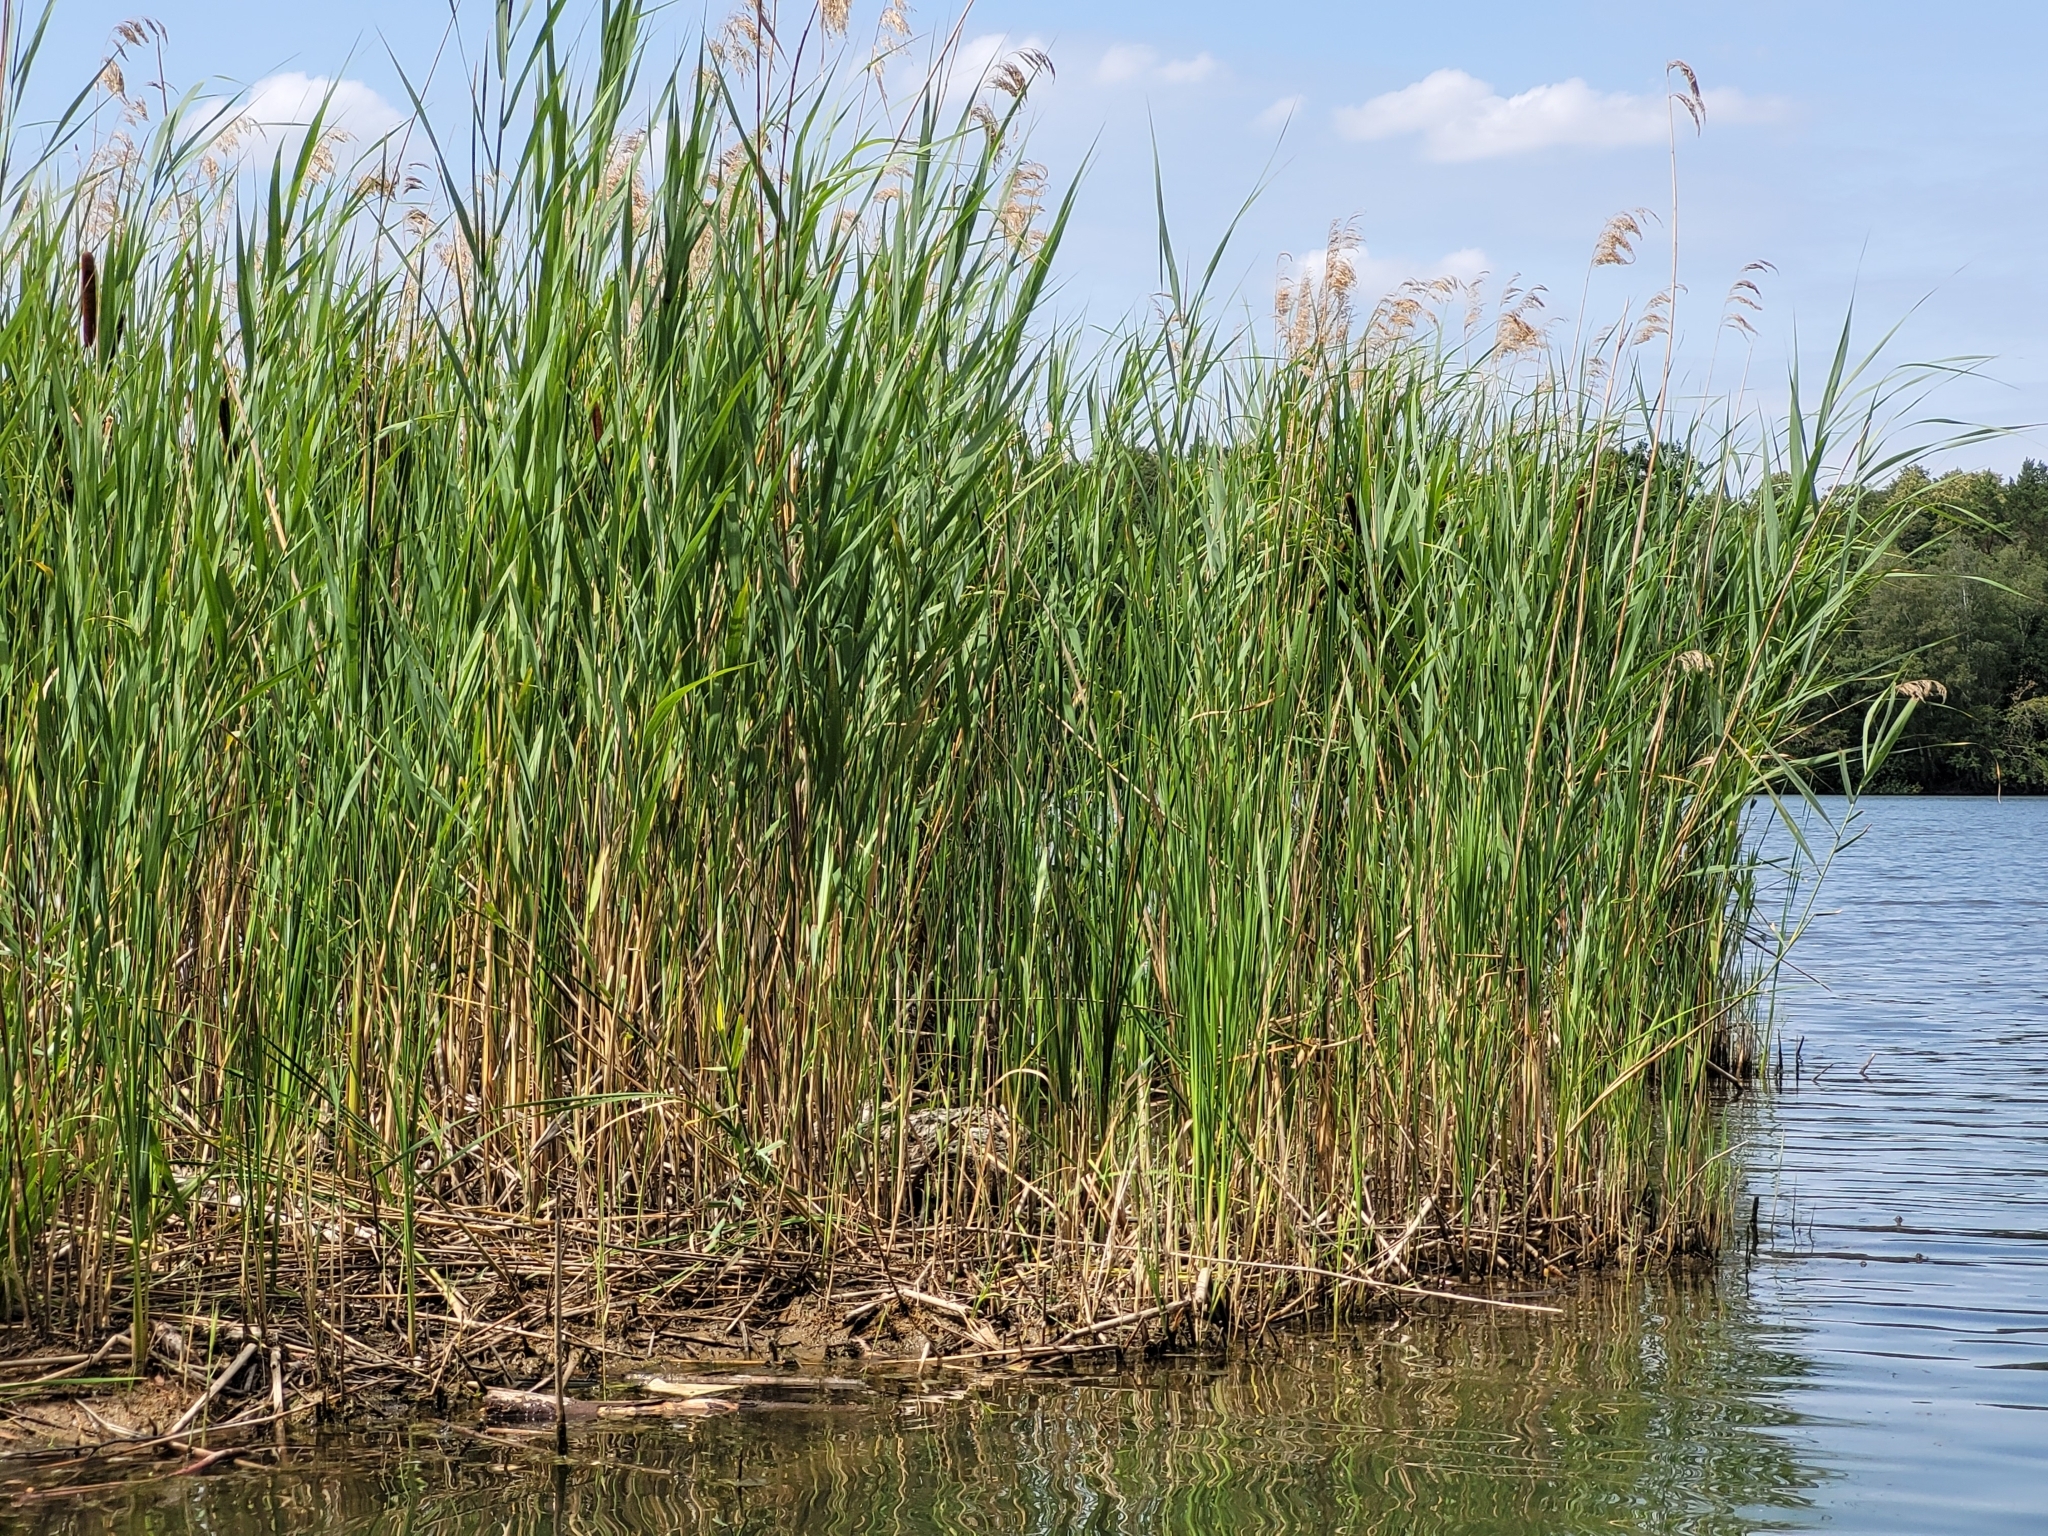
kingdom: Plantae
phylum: Tracheophyta
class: Liliopsida
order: Poales
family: Poaceae
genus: Phragmites
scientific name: Phragmites australis
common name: Common reed
